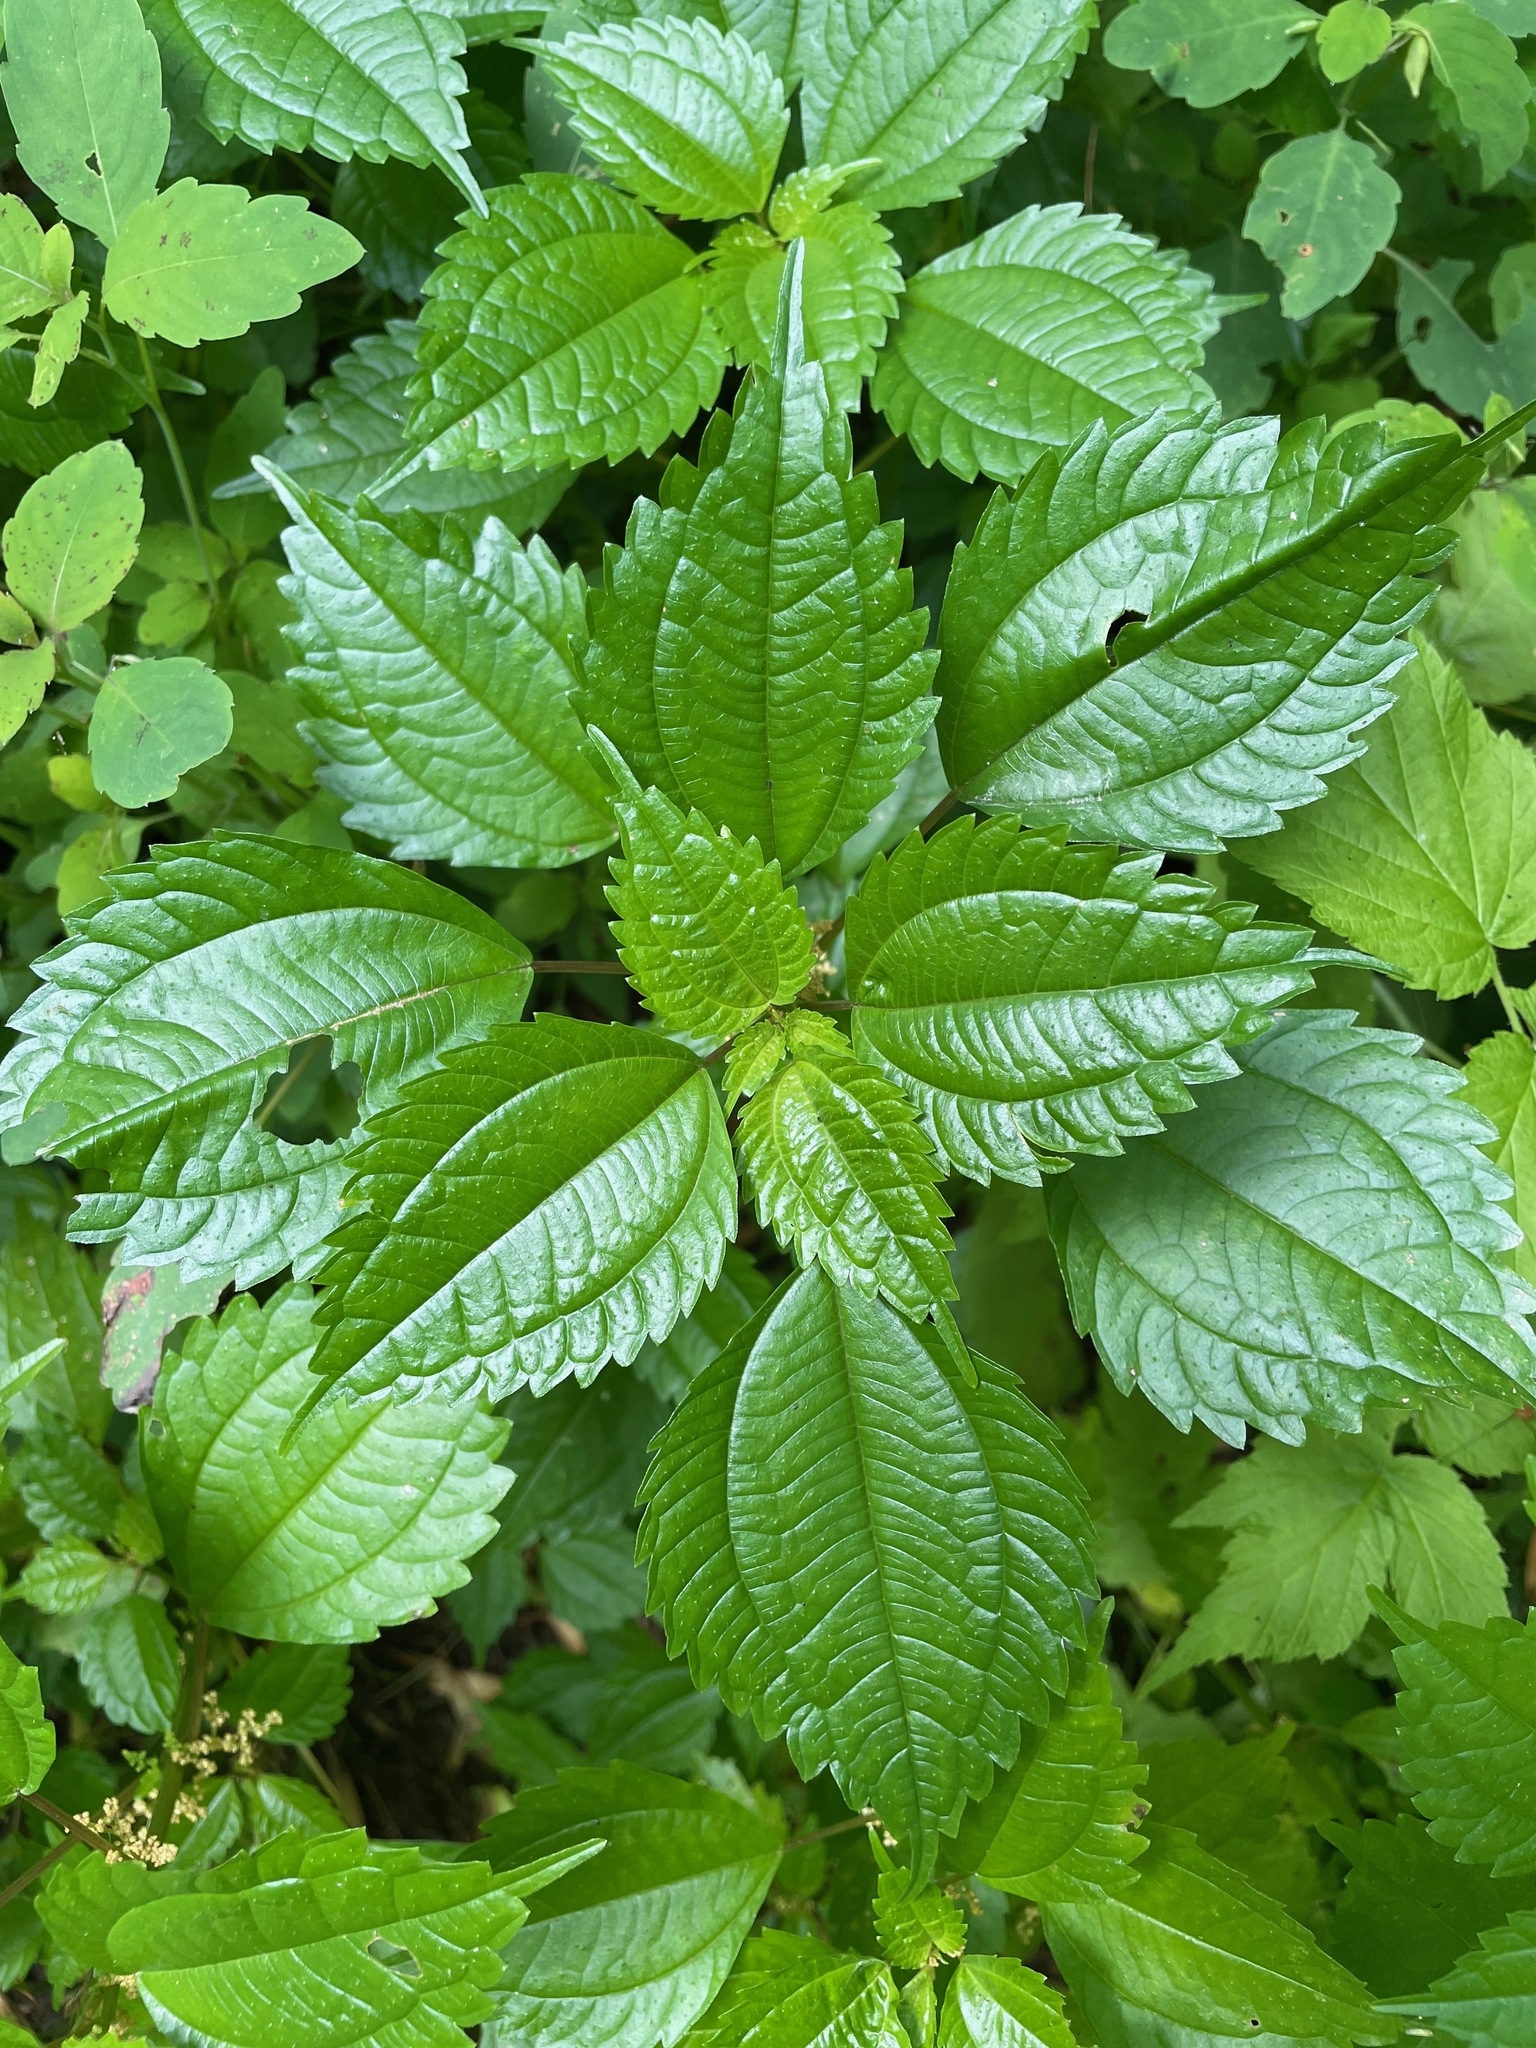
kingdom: Plantae
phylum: Tracheophyta
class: Magnoliopsida
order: Rosales
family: Urticaceae
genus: Pilea
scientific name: Pilea pumila
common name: Clearweed
